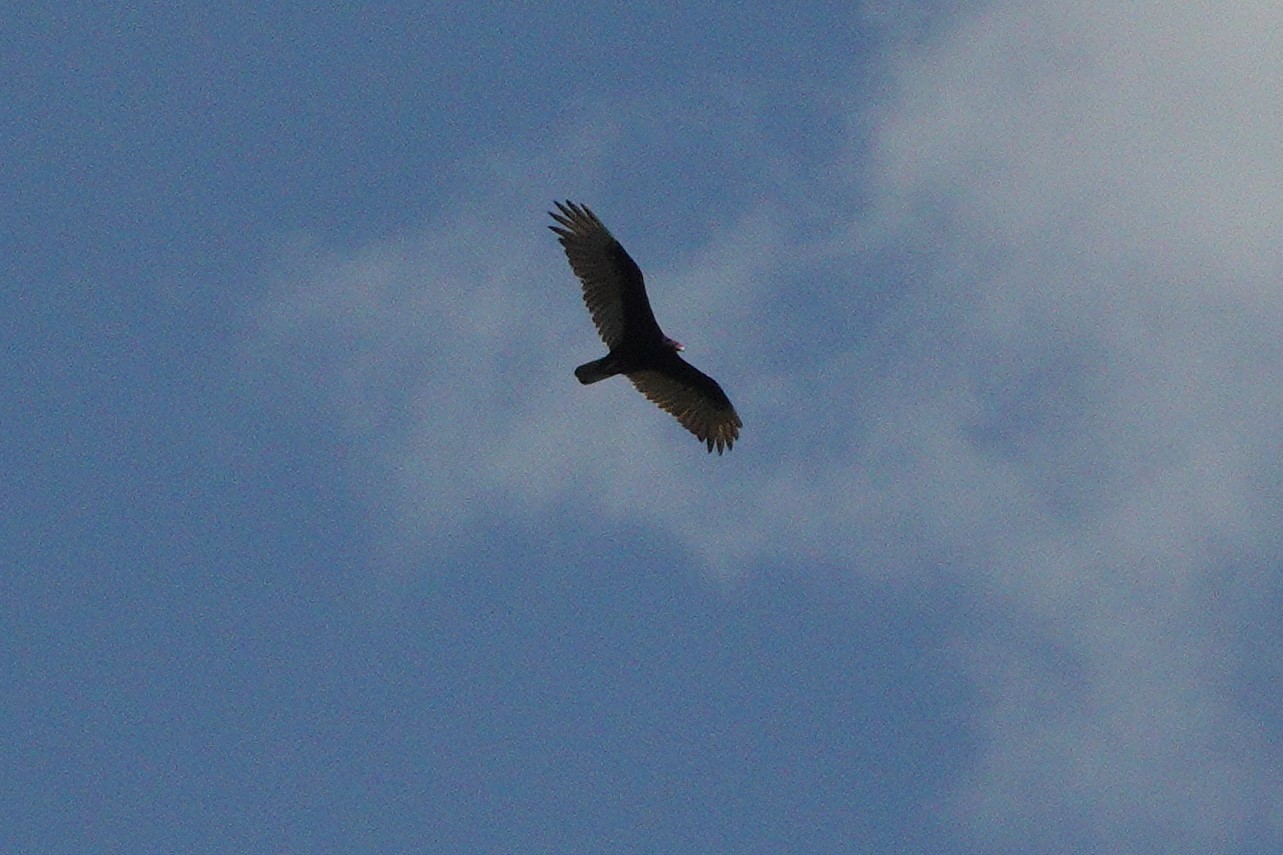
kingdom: Animalia
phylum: Chordata
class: Aves
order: Accipitriformes
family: Cathartidae
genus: Cathartes
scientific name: Cathartes aura
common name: Turkey vulture
